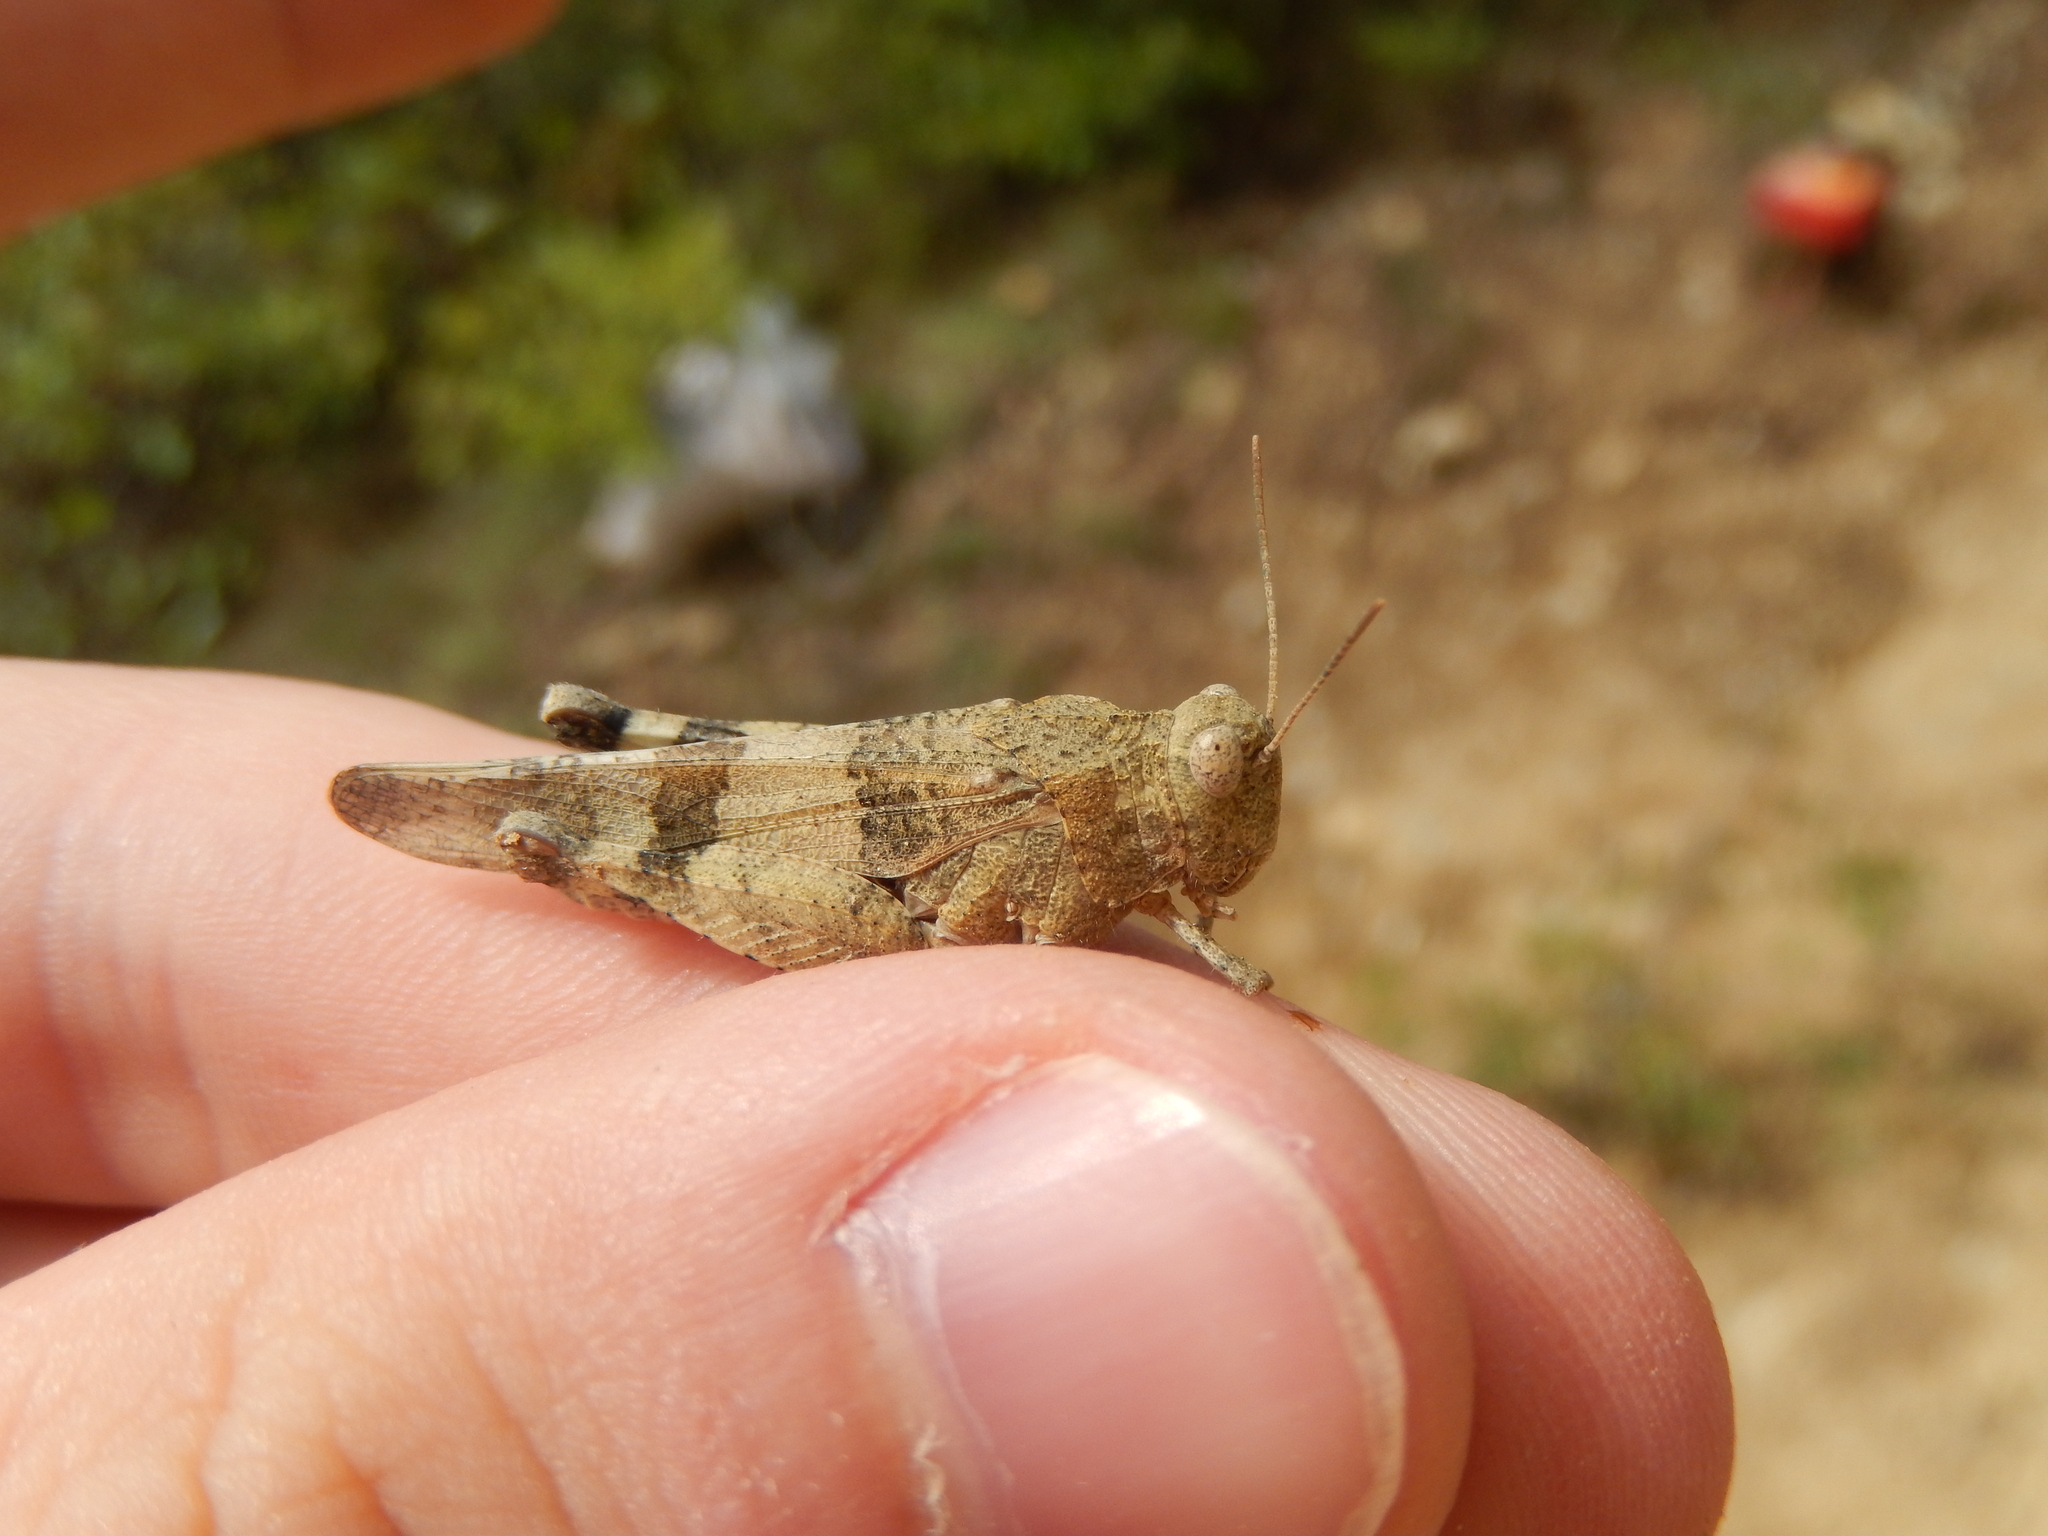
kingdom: Animalia
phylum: Arthropoda
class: Insecta
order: Orthoptera
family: Acrididae
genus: Oedipoda
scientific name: Oedipoda caerulescens
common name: Blue-winged grasshopper
